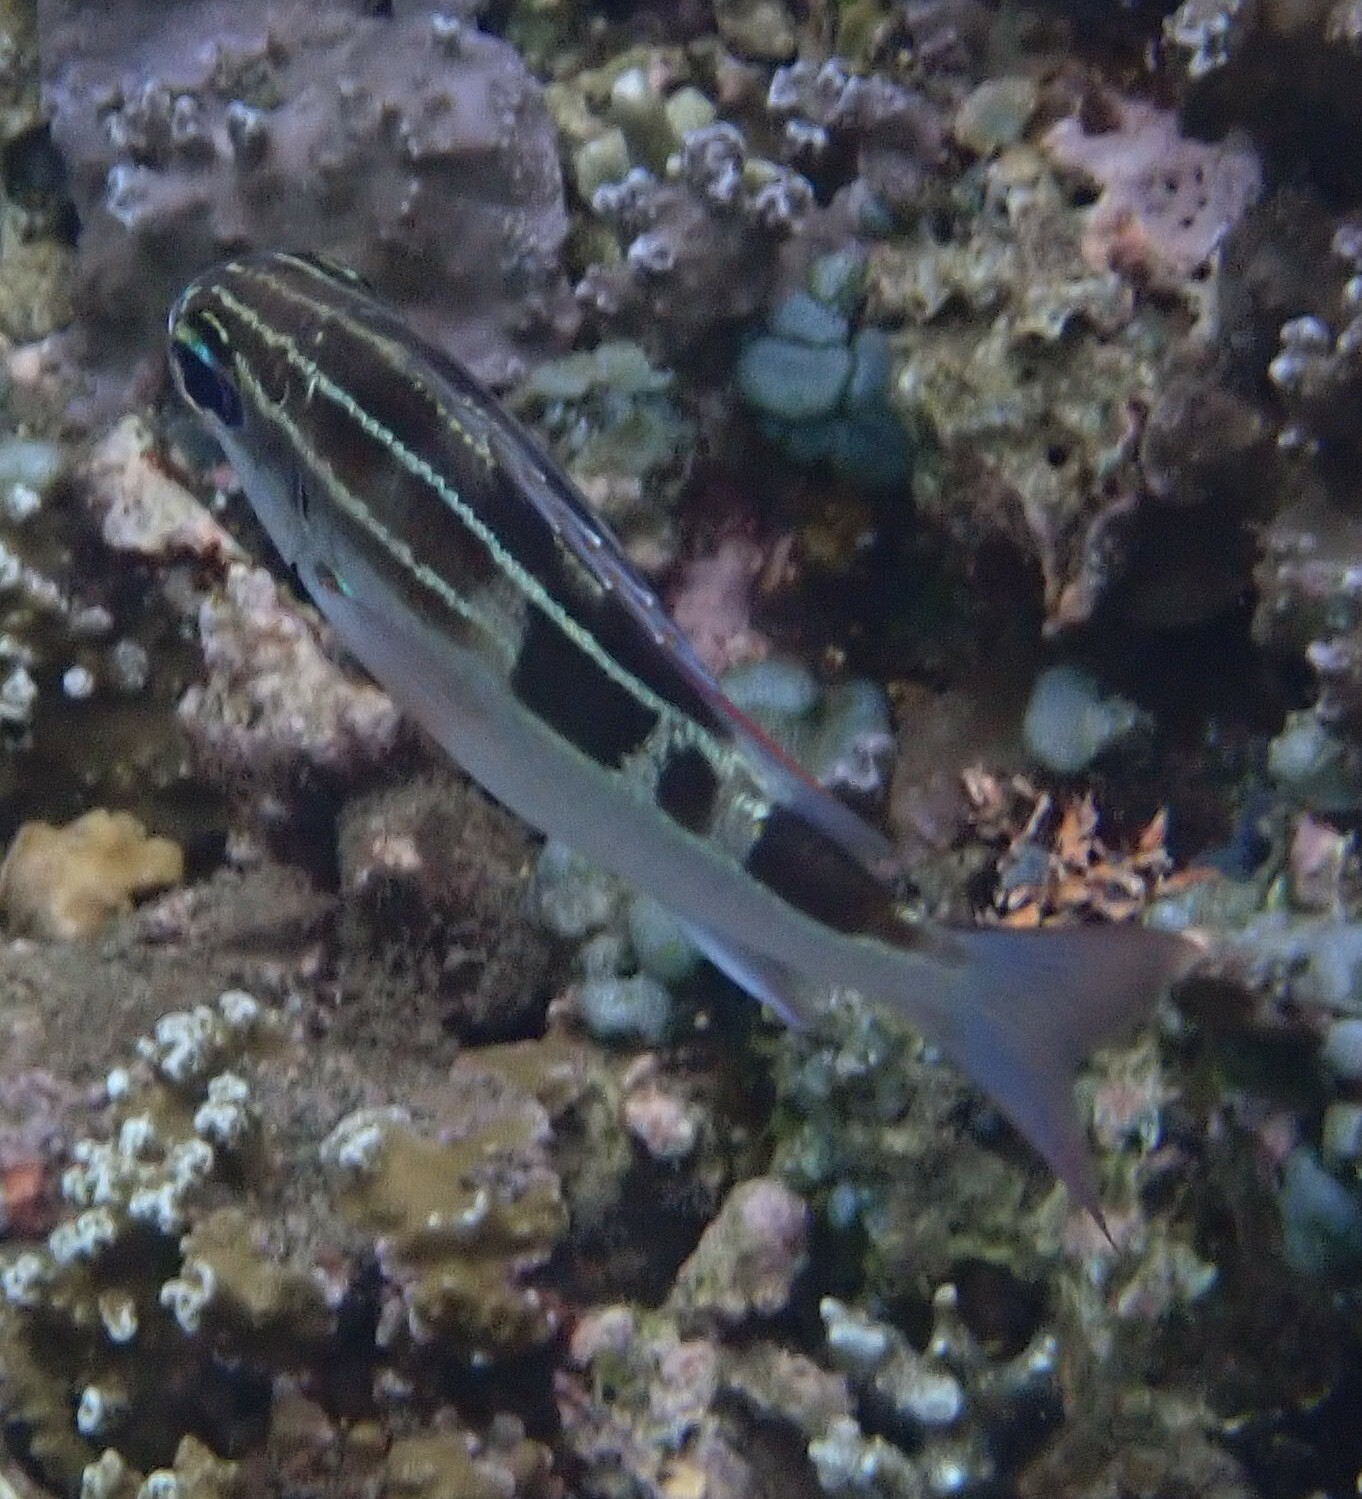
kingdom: Animalia
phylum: Chordata
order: Perciformes
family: Nemipteridae
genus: Scolopsis
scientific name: Scolopsis lineata
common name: Striped monocle bream
